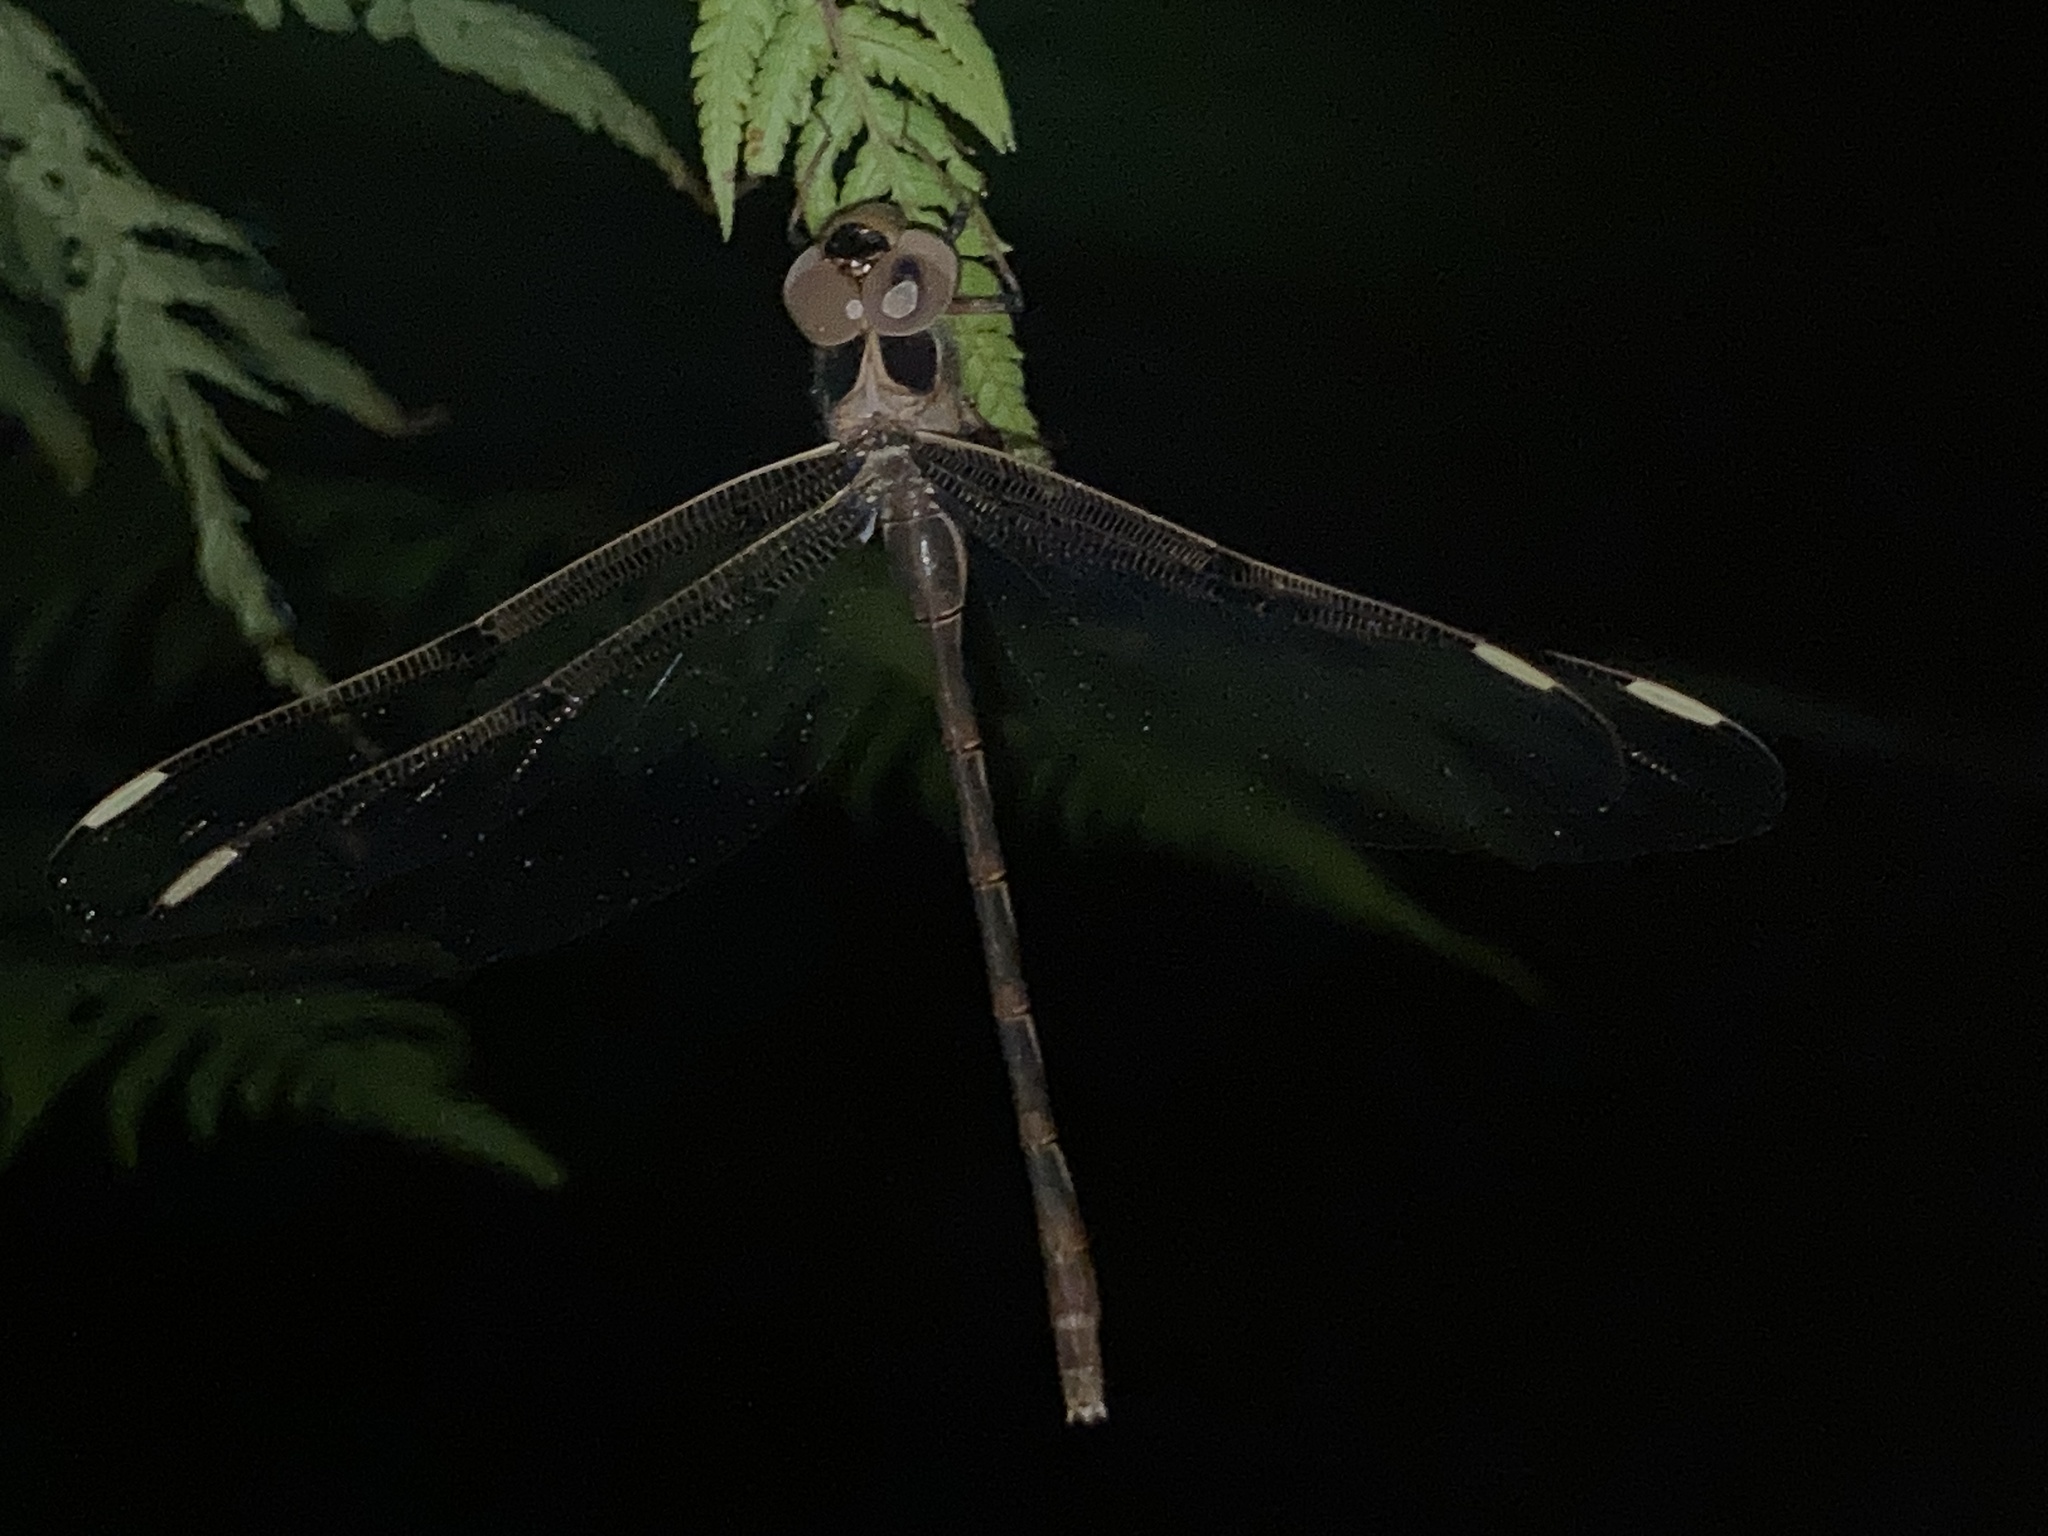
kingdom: Animalia
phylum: Arthropoda
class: Insecta
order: Odonata
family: Aeshnidae
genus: Telephlebia
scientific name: Telephlebia godeffroyi
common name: Eastern evening darner
